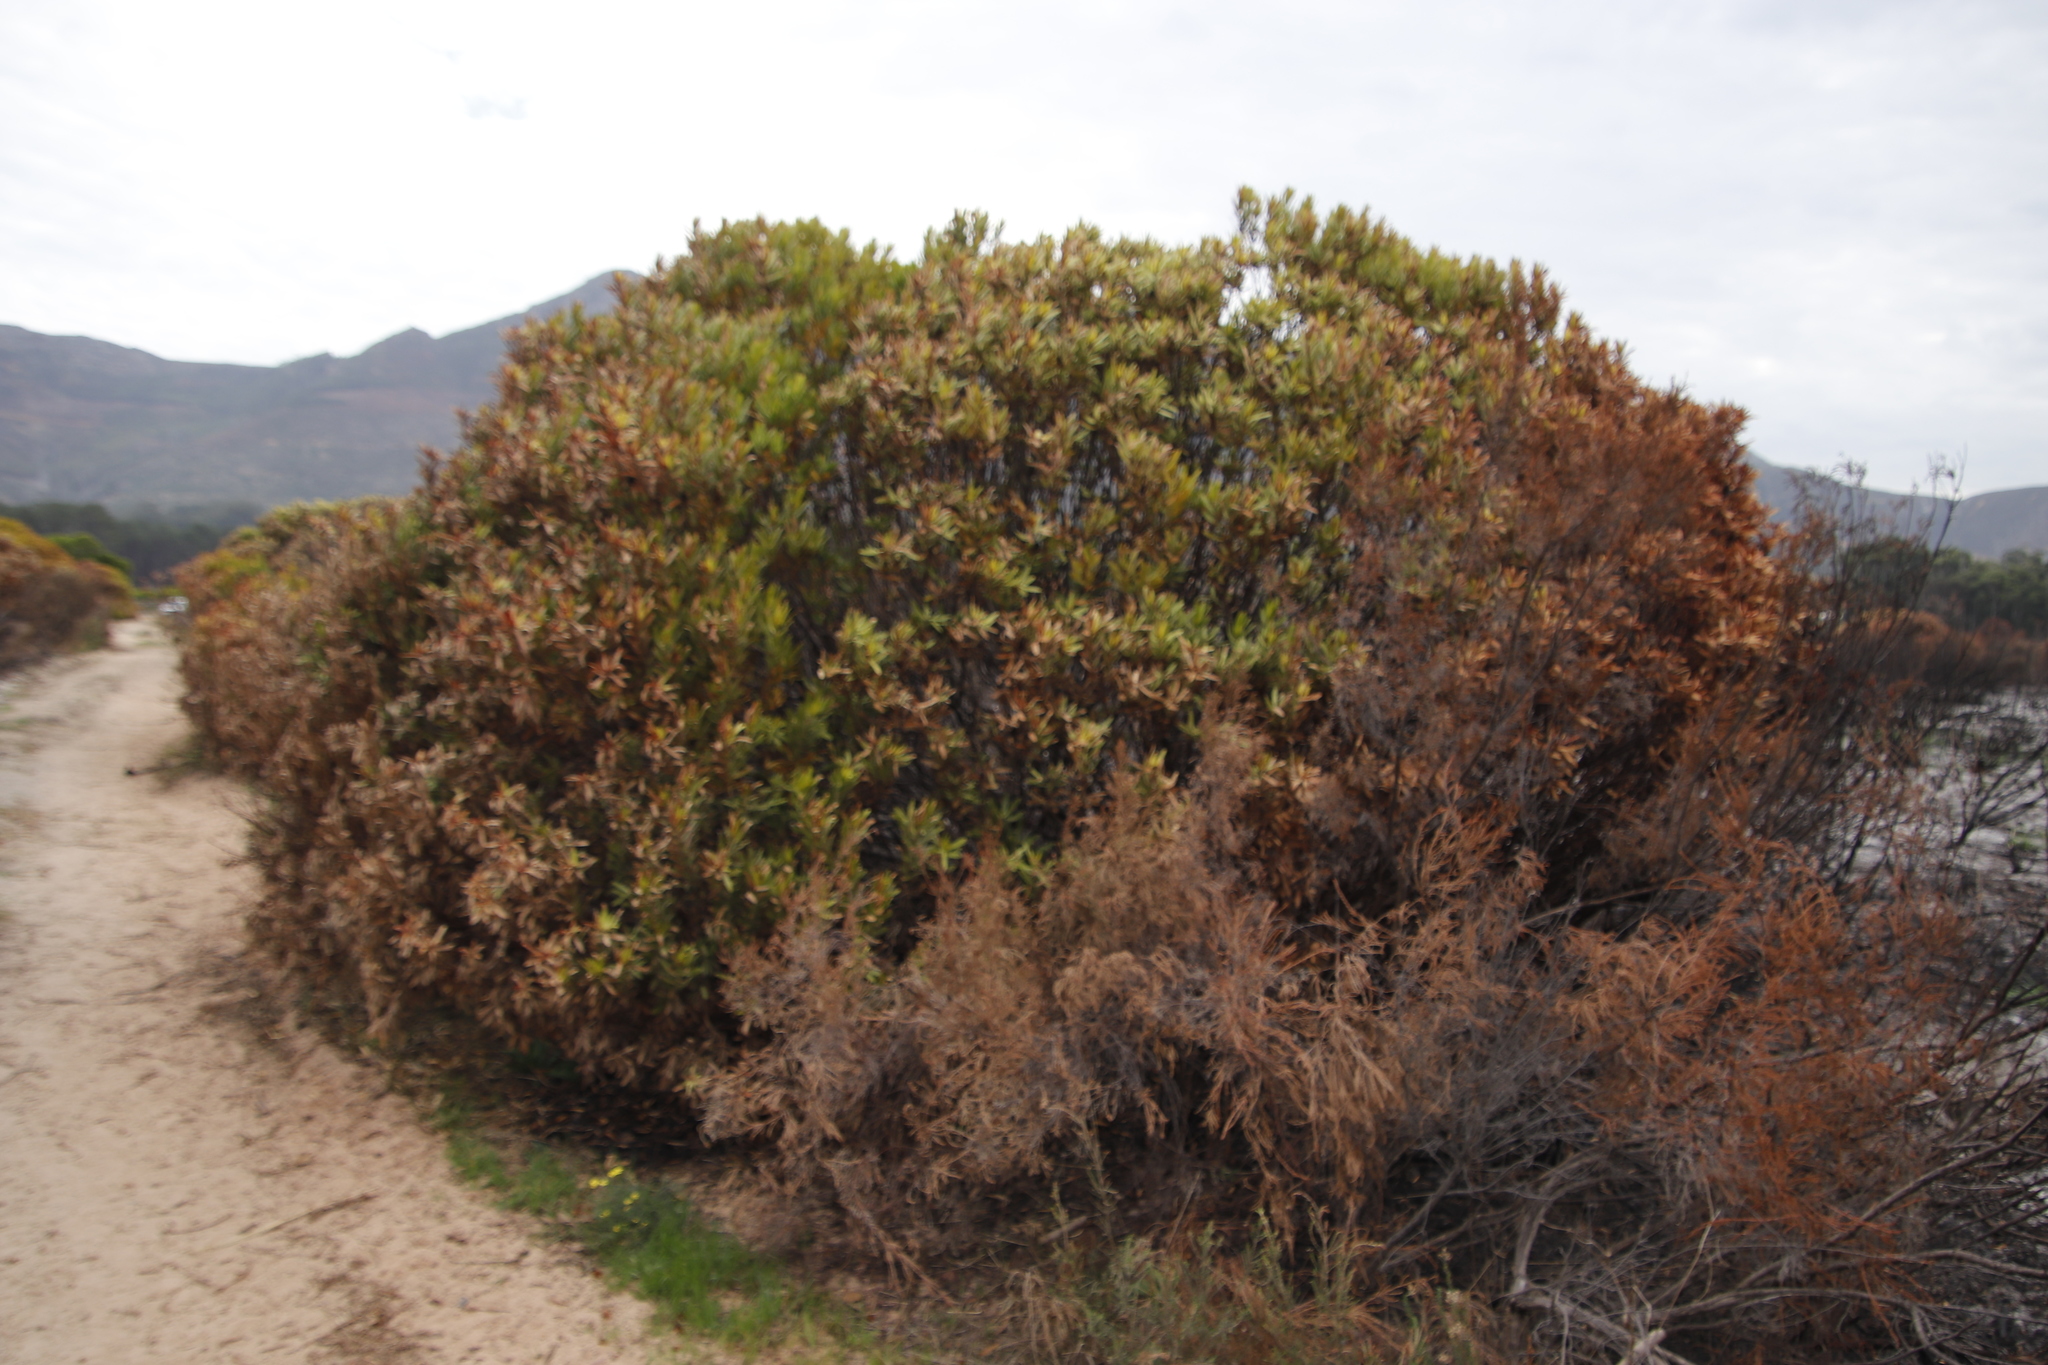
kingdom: Plantae
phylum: Tracheophyta
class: Magnoliopsida
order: Proteales
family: Proteaceae
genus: Leucadendron
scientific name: Leucadendron laureolum
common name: Golden sunshinebush
